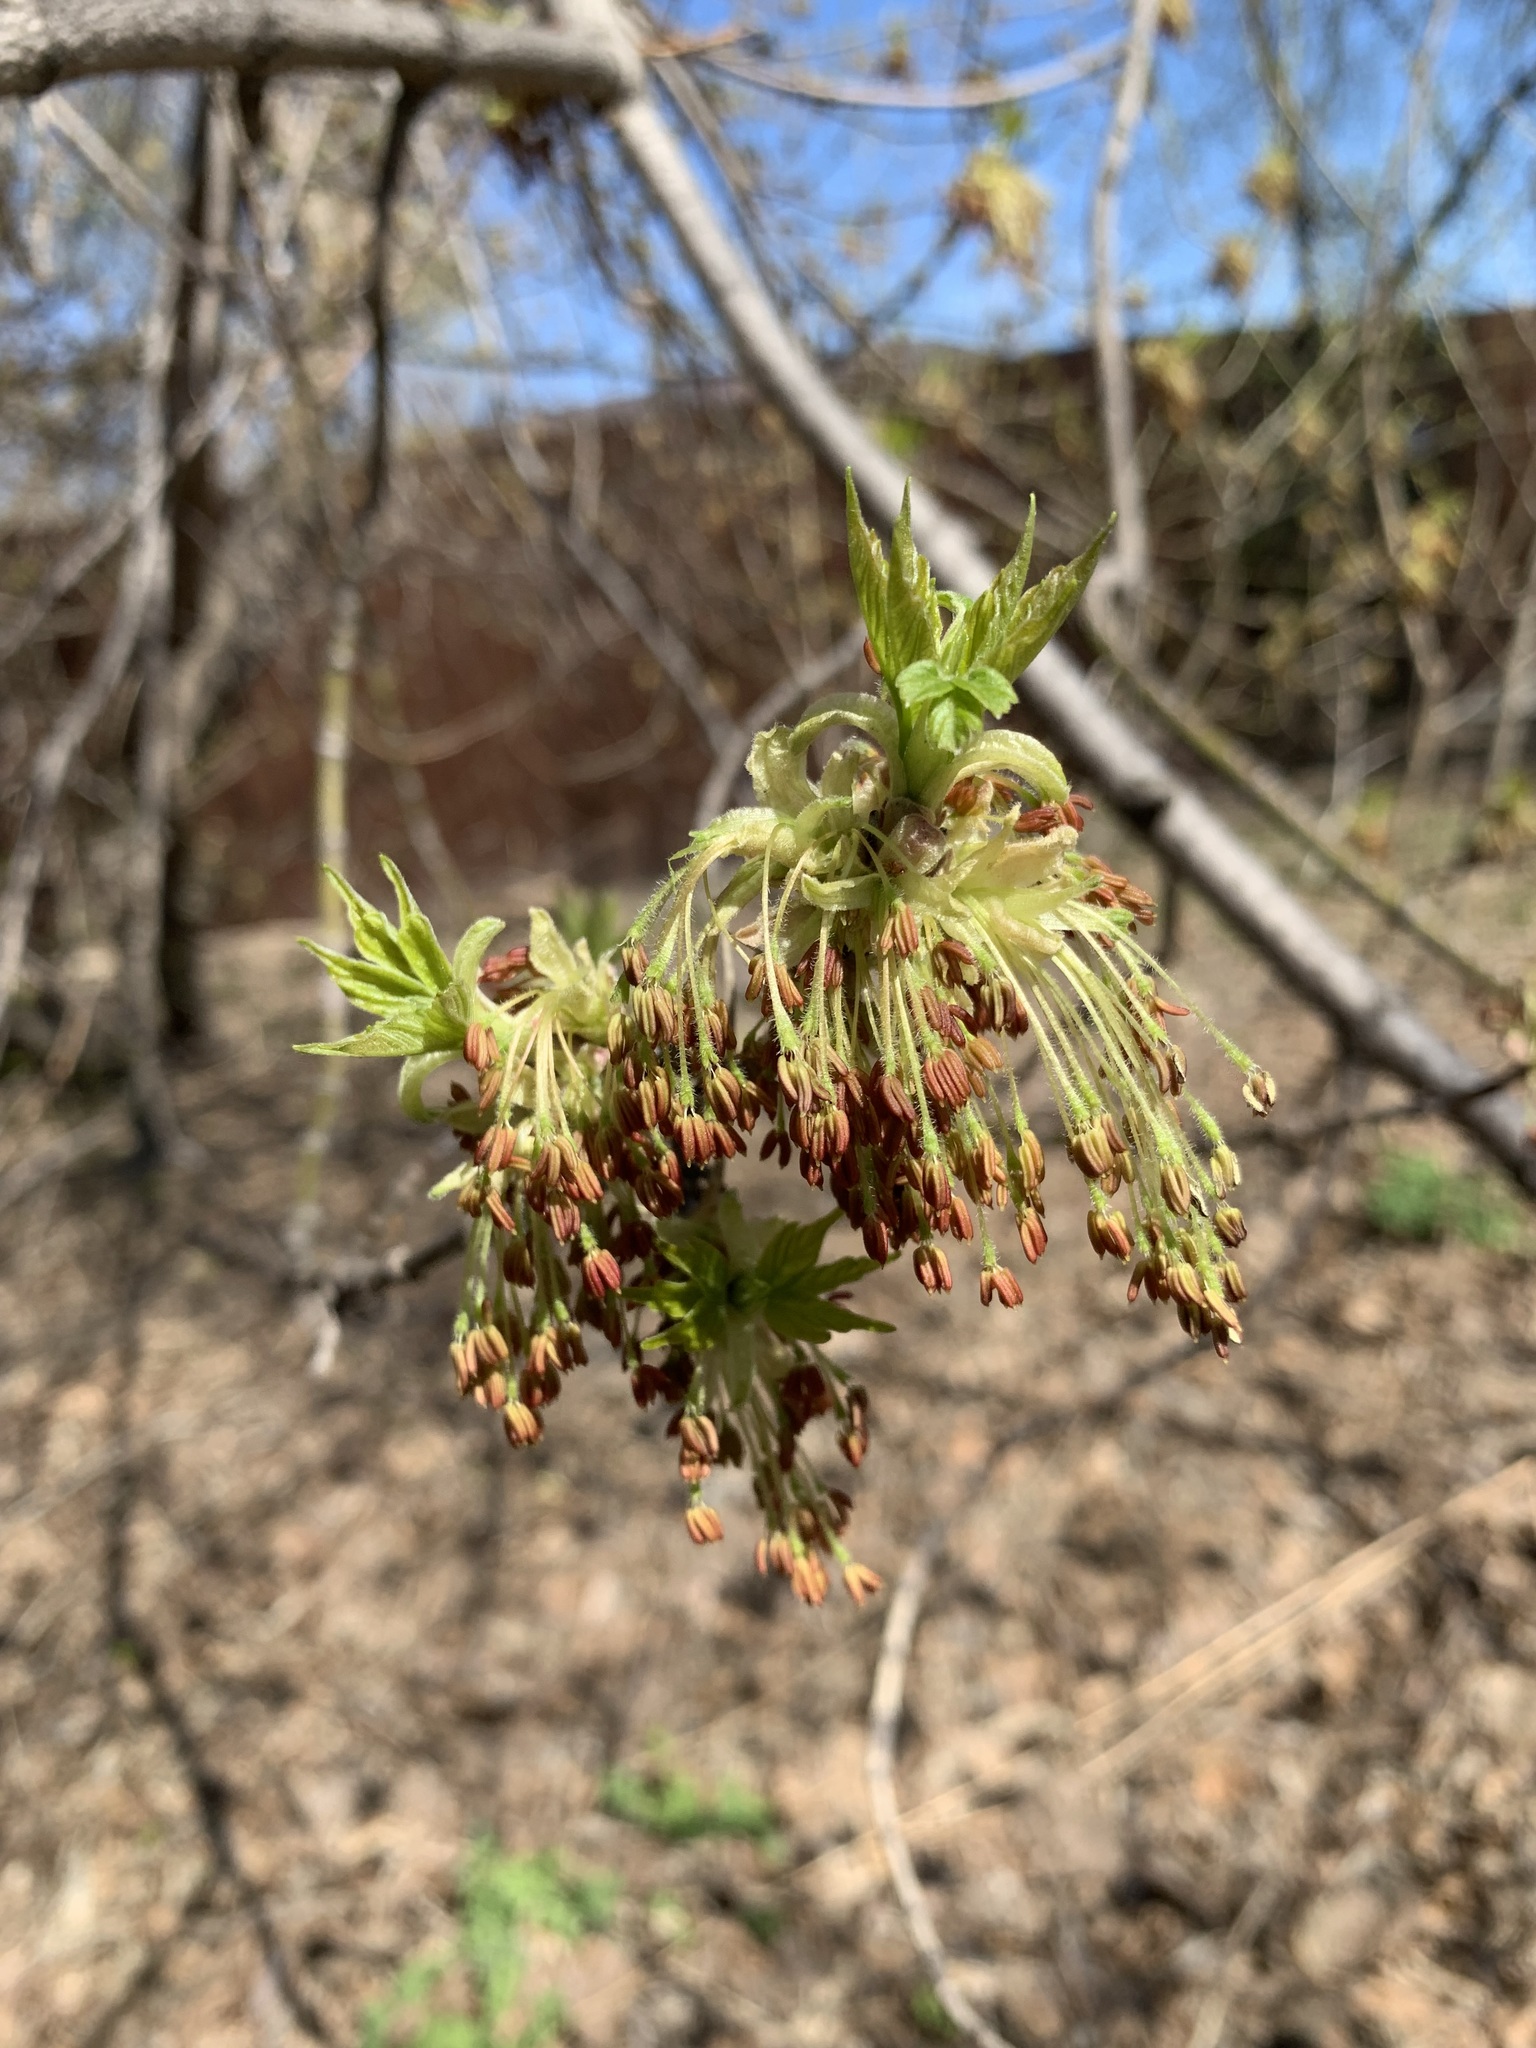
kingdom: Plantae
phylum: Tracheophyta
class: Magnoliopsida
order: Sapindales
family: Sapindaceae
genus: Acer
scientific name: Acer negundo
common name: Ashleaf maple
